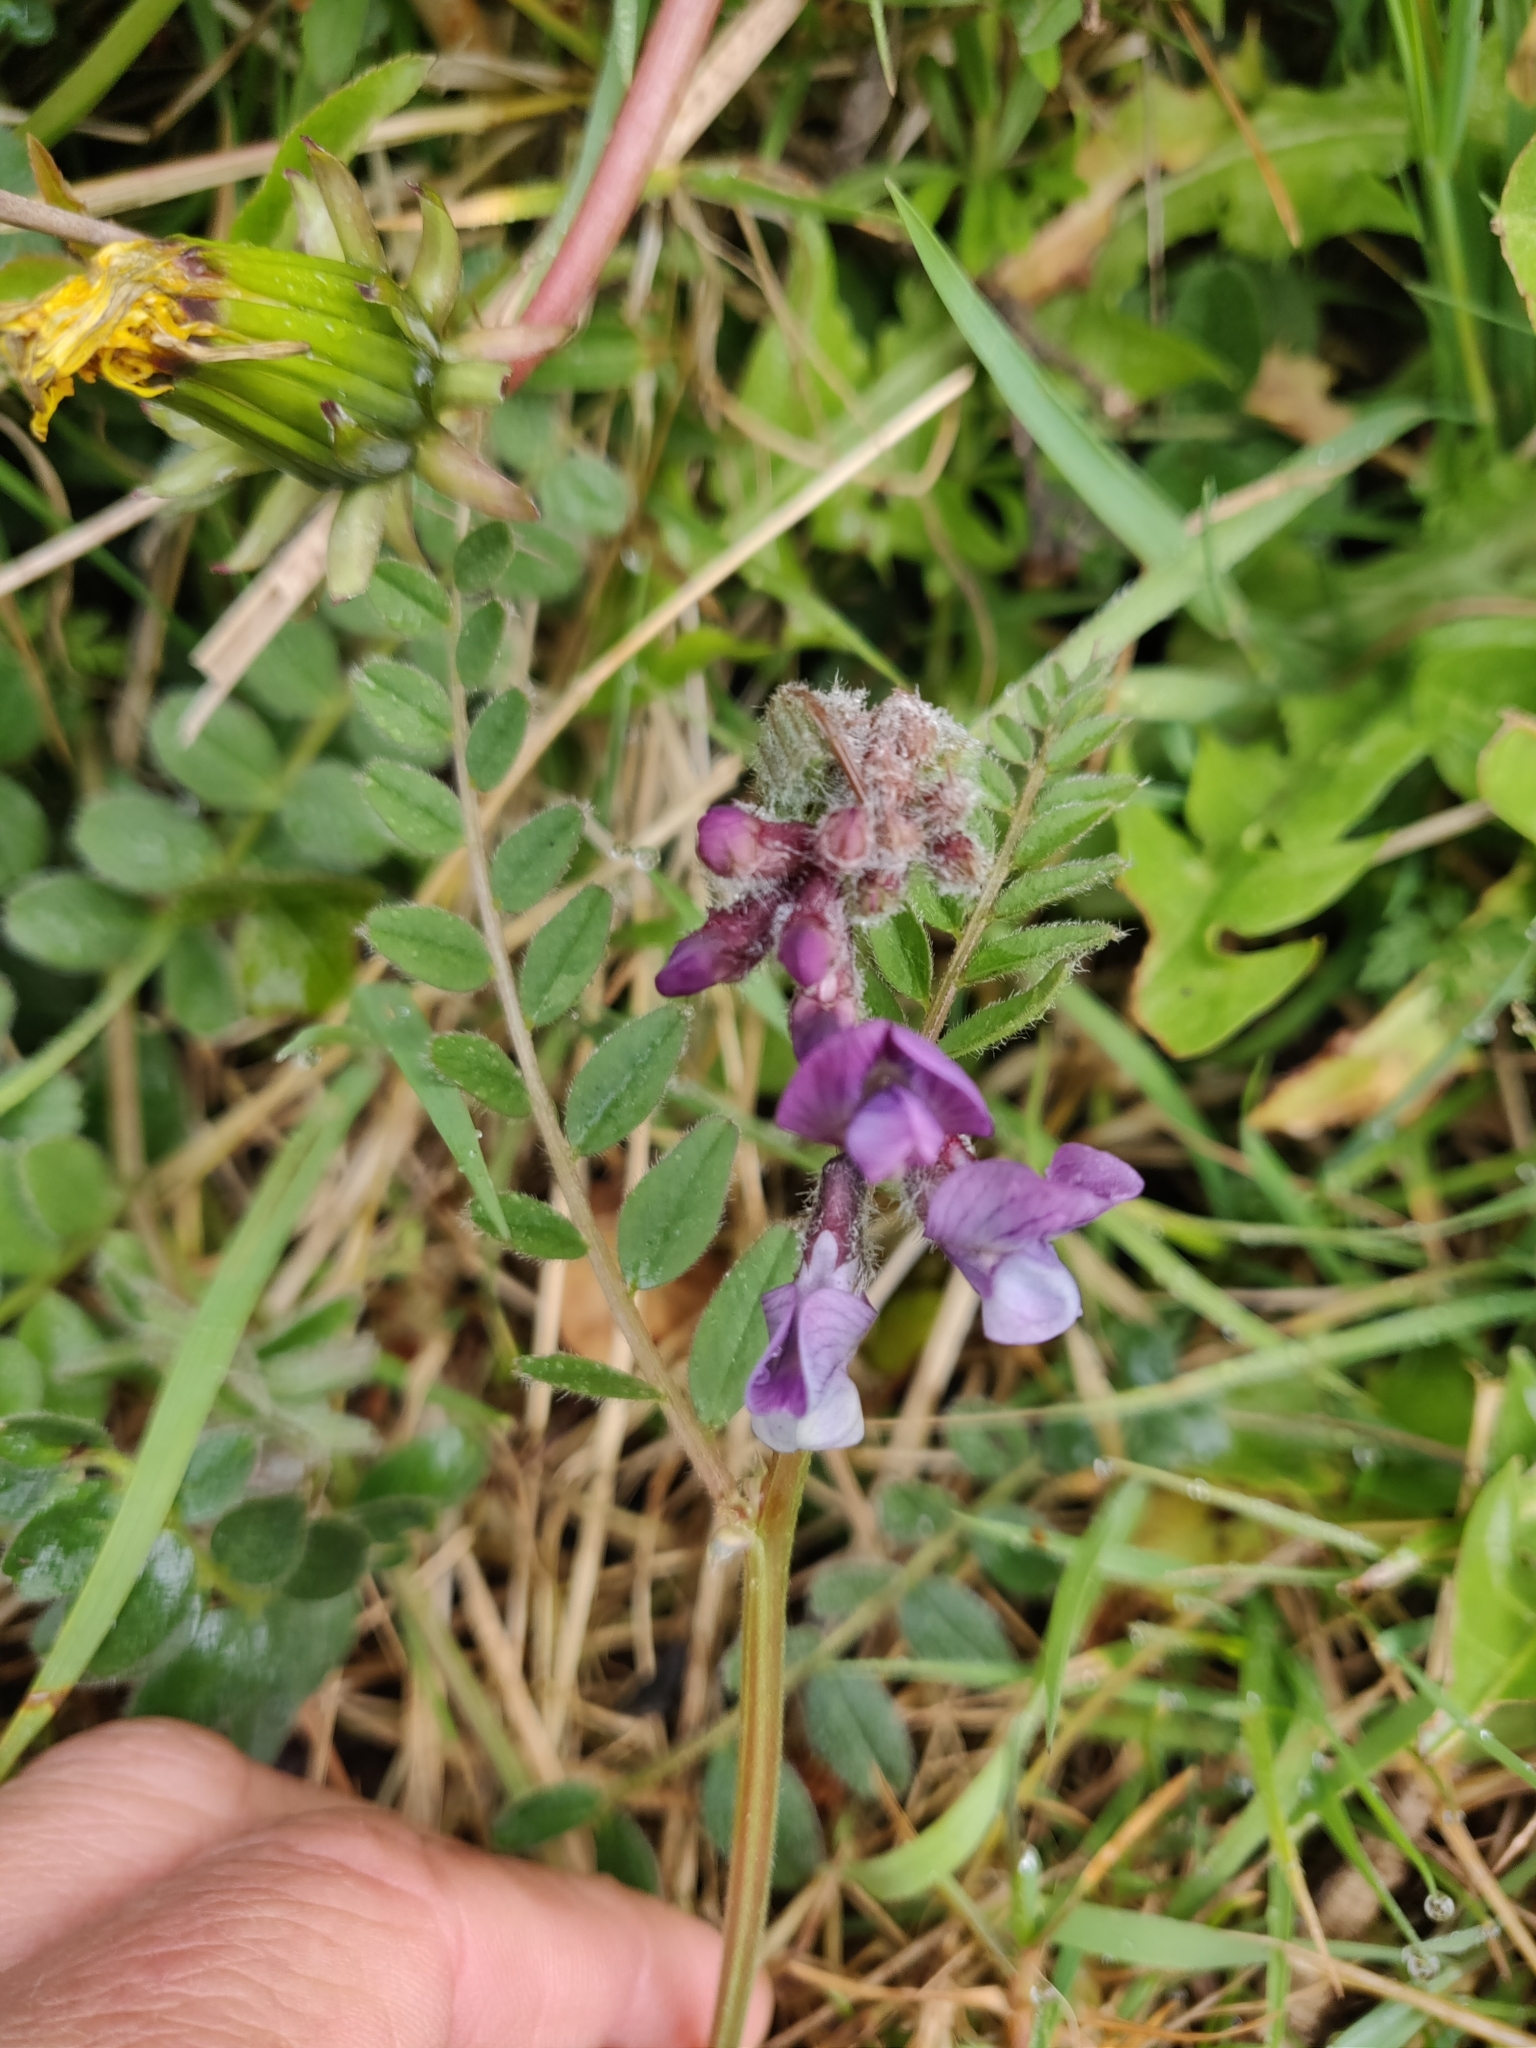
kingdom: Plantae
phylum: Tracheophyta
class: Magnoliopsida
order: Fabales
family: Fabaceae
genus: Vicia
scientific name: Vicia sepium
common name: Bush vetch
